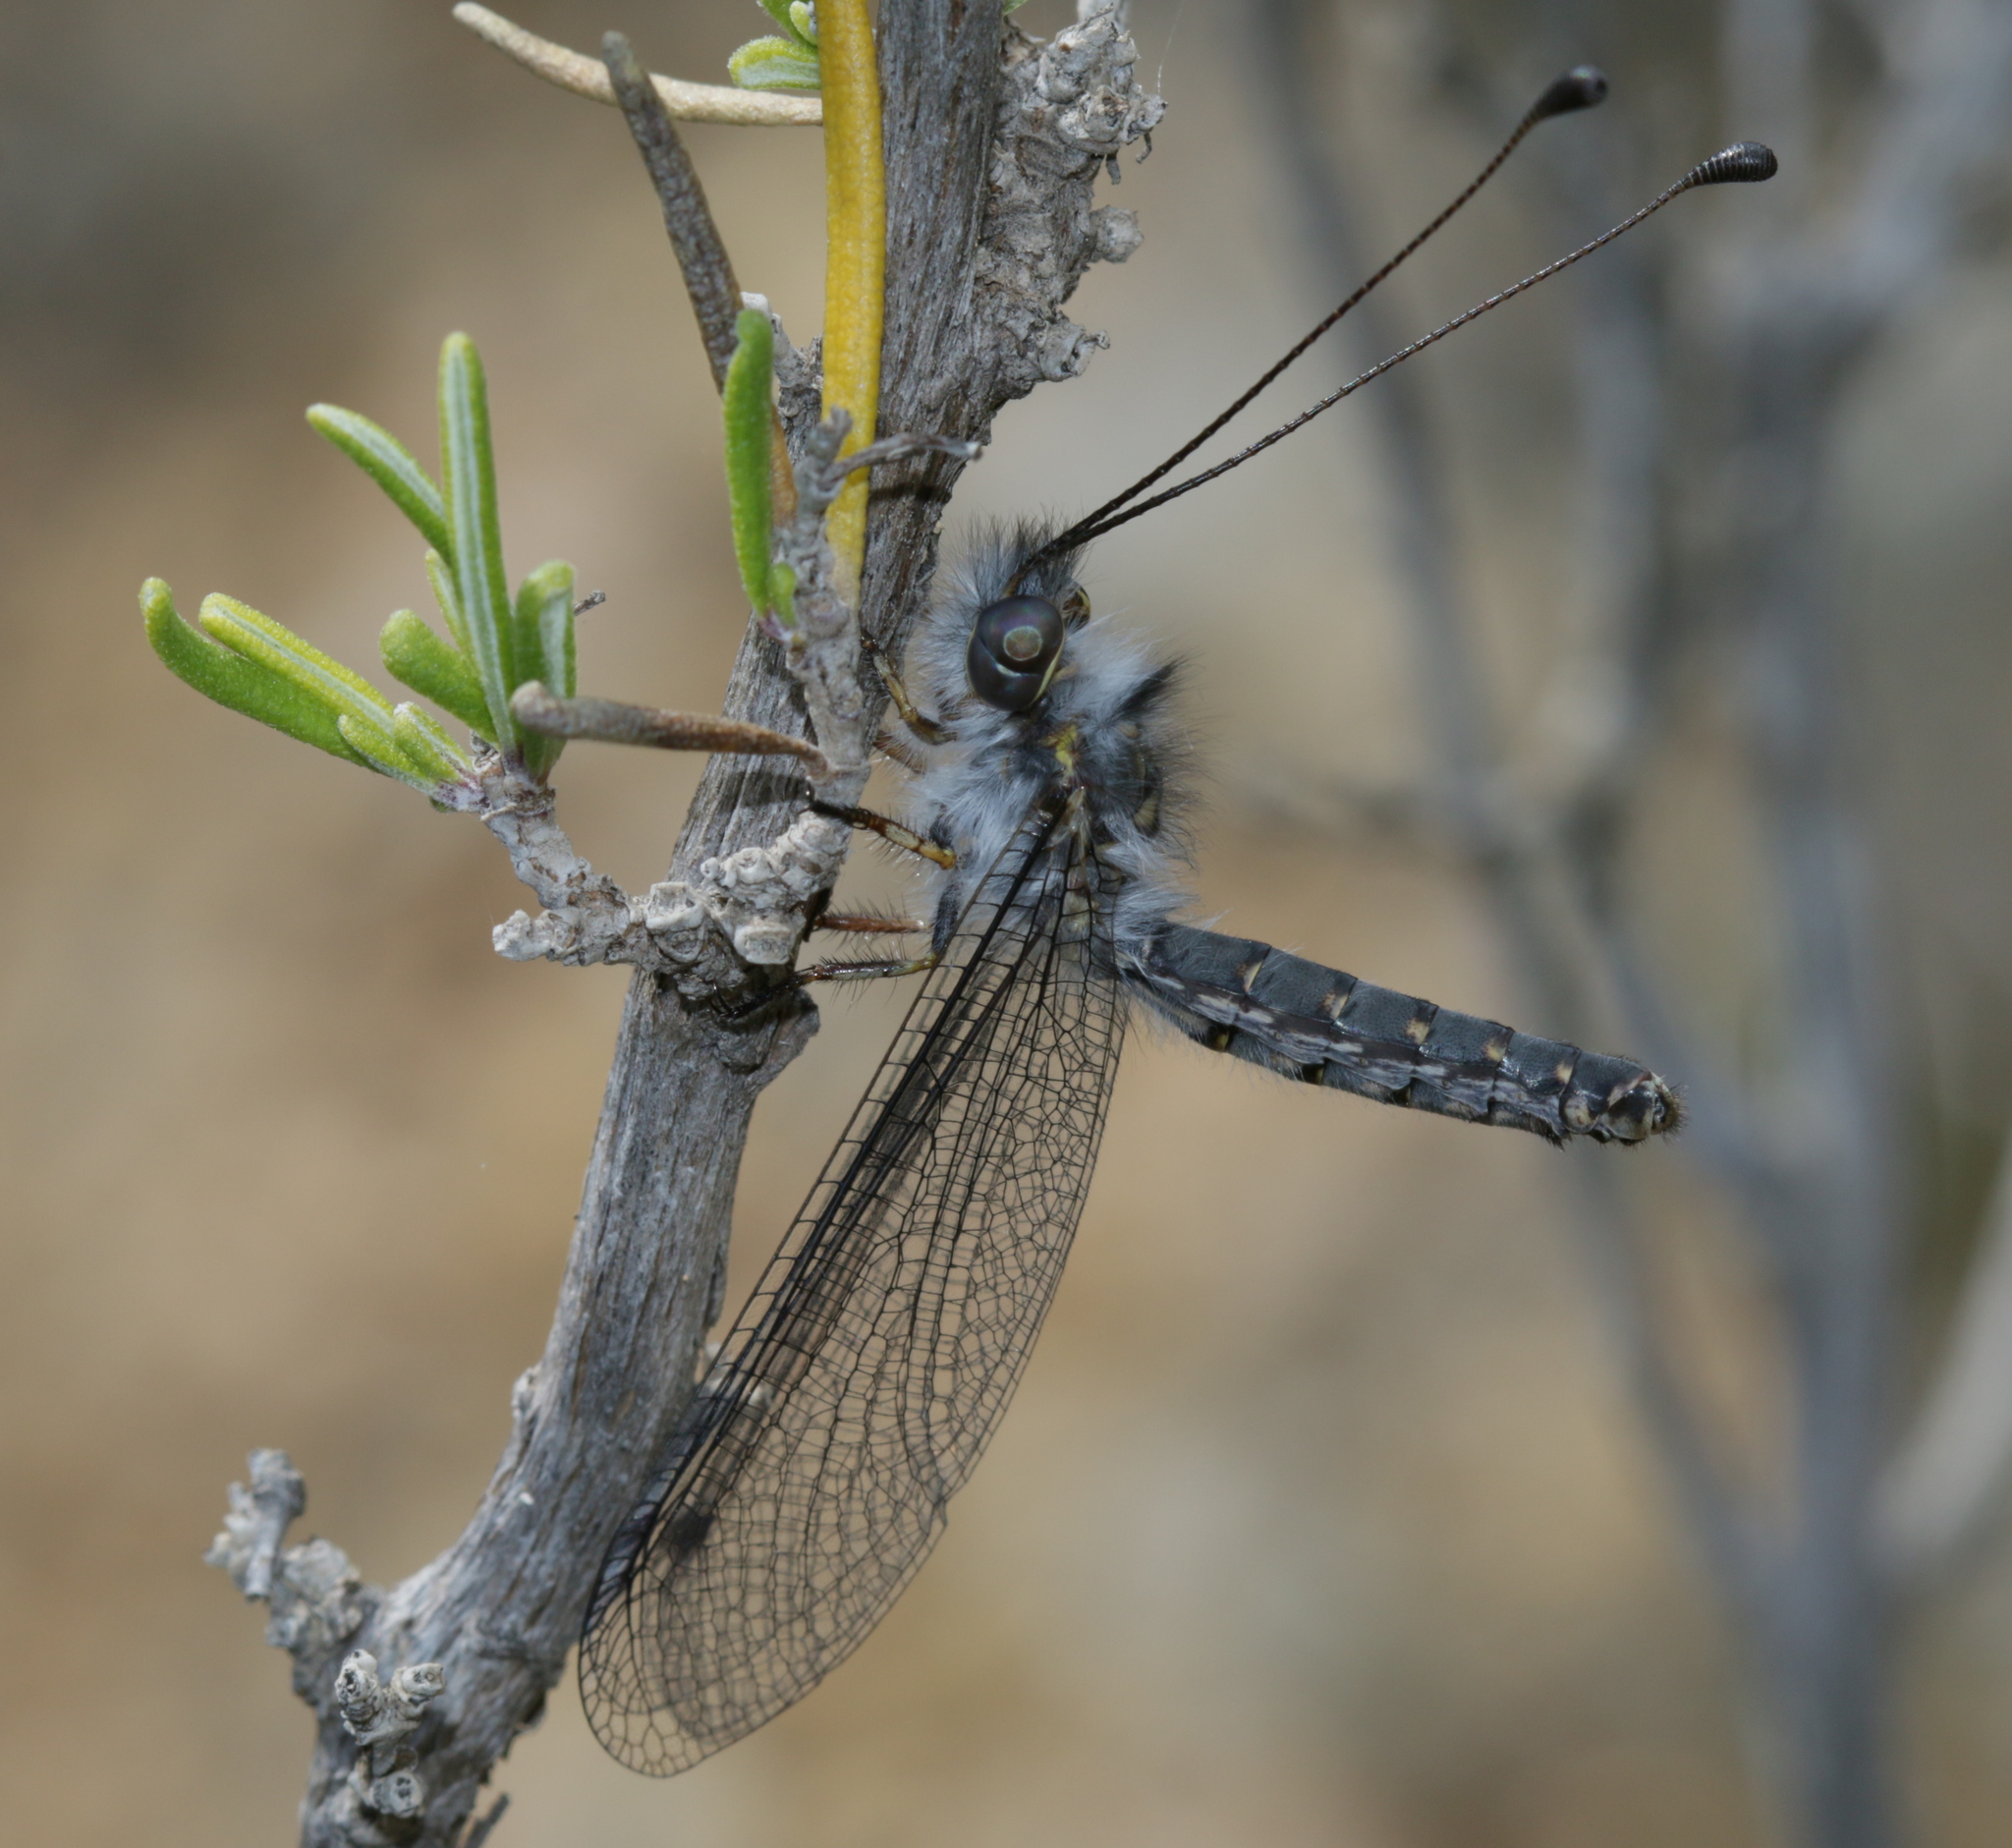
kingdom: Animalia
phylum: Arthropoda
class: Insecta
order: Neuroptera
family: Ascalaphidae
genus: Bubopsis
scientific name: Bubopsis agrionoides
